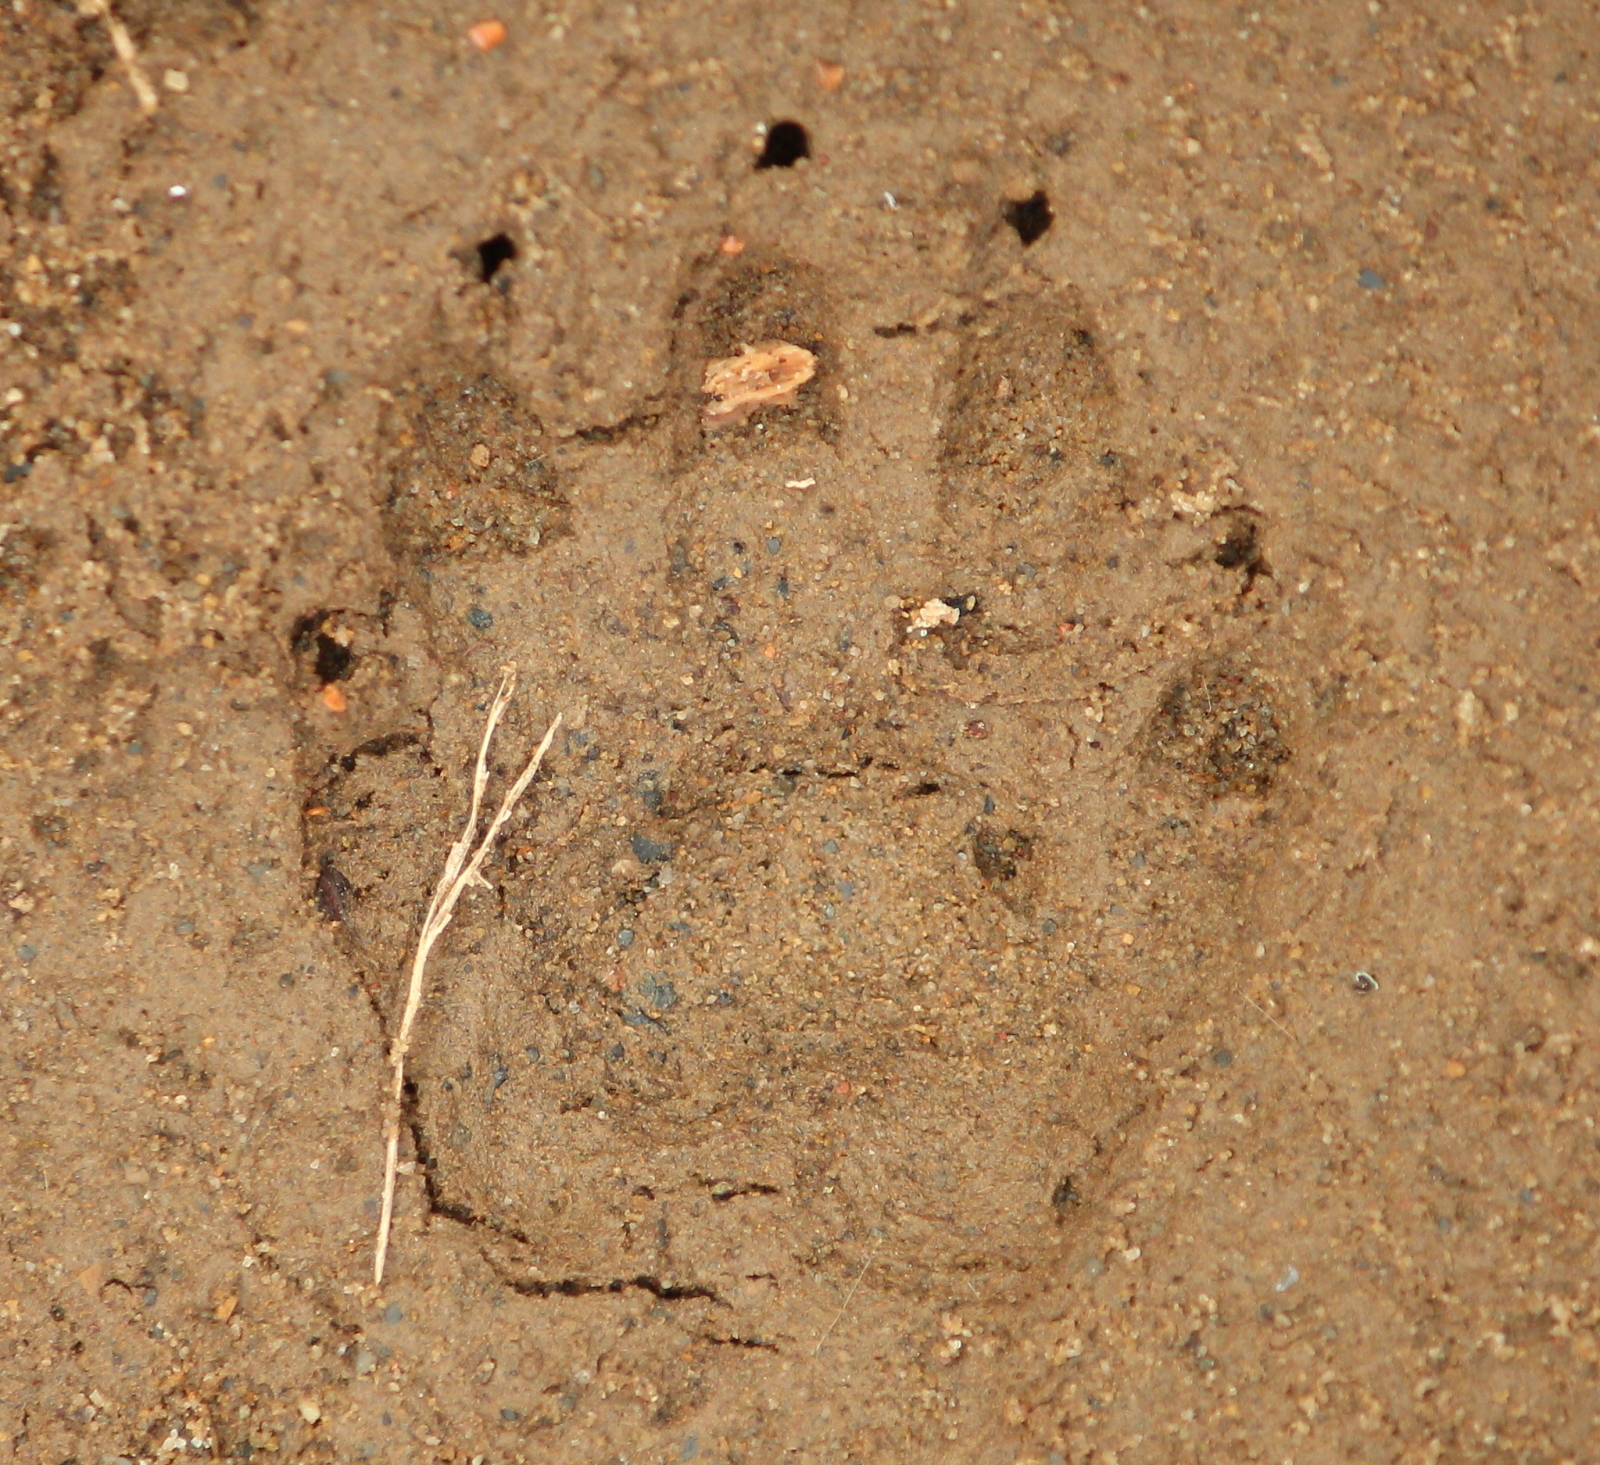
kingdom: Animalia
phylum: Chordata
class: Mammalia
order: Carnivora
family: Procyonidae
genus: Procyon
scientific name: Procyon lotor
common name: Raccoon
